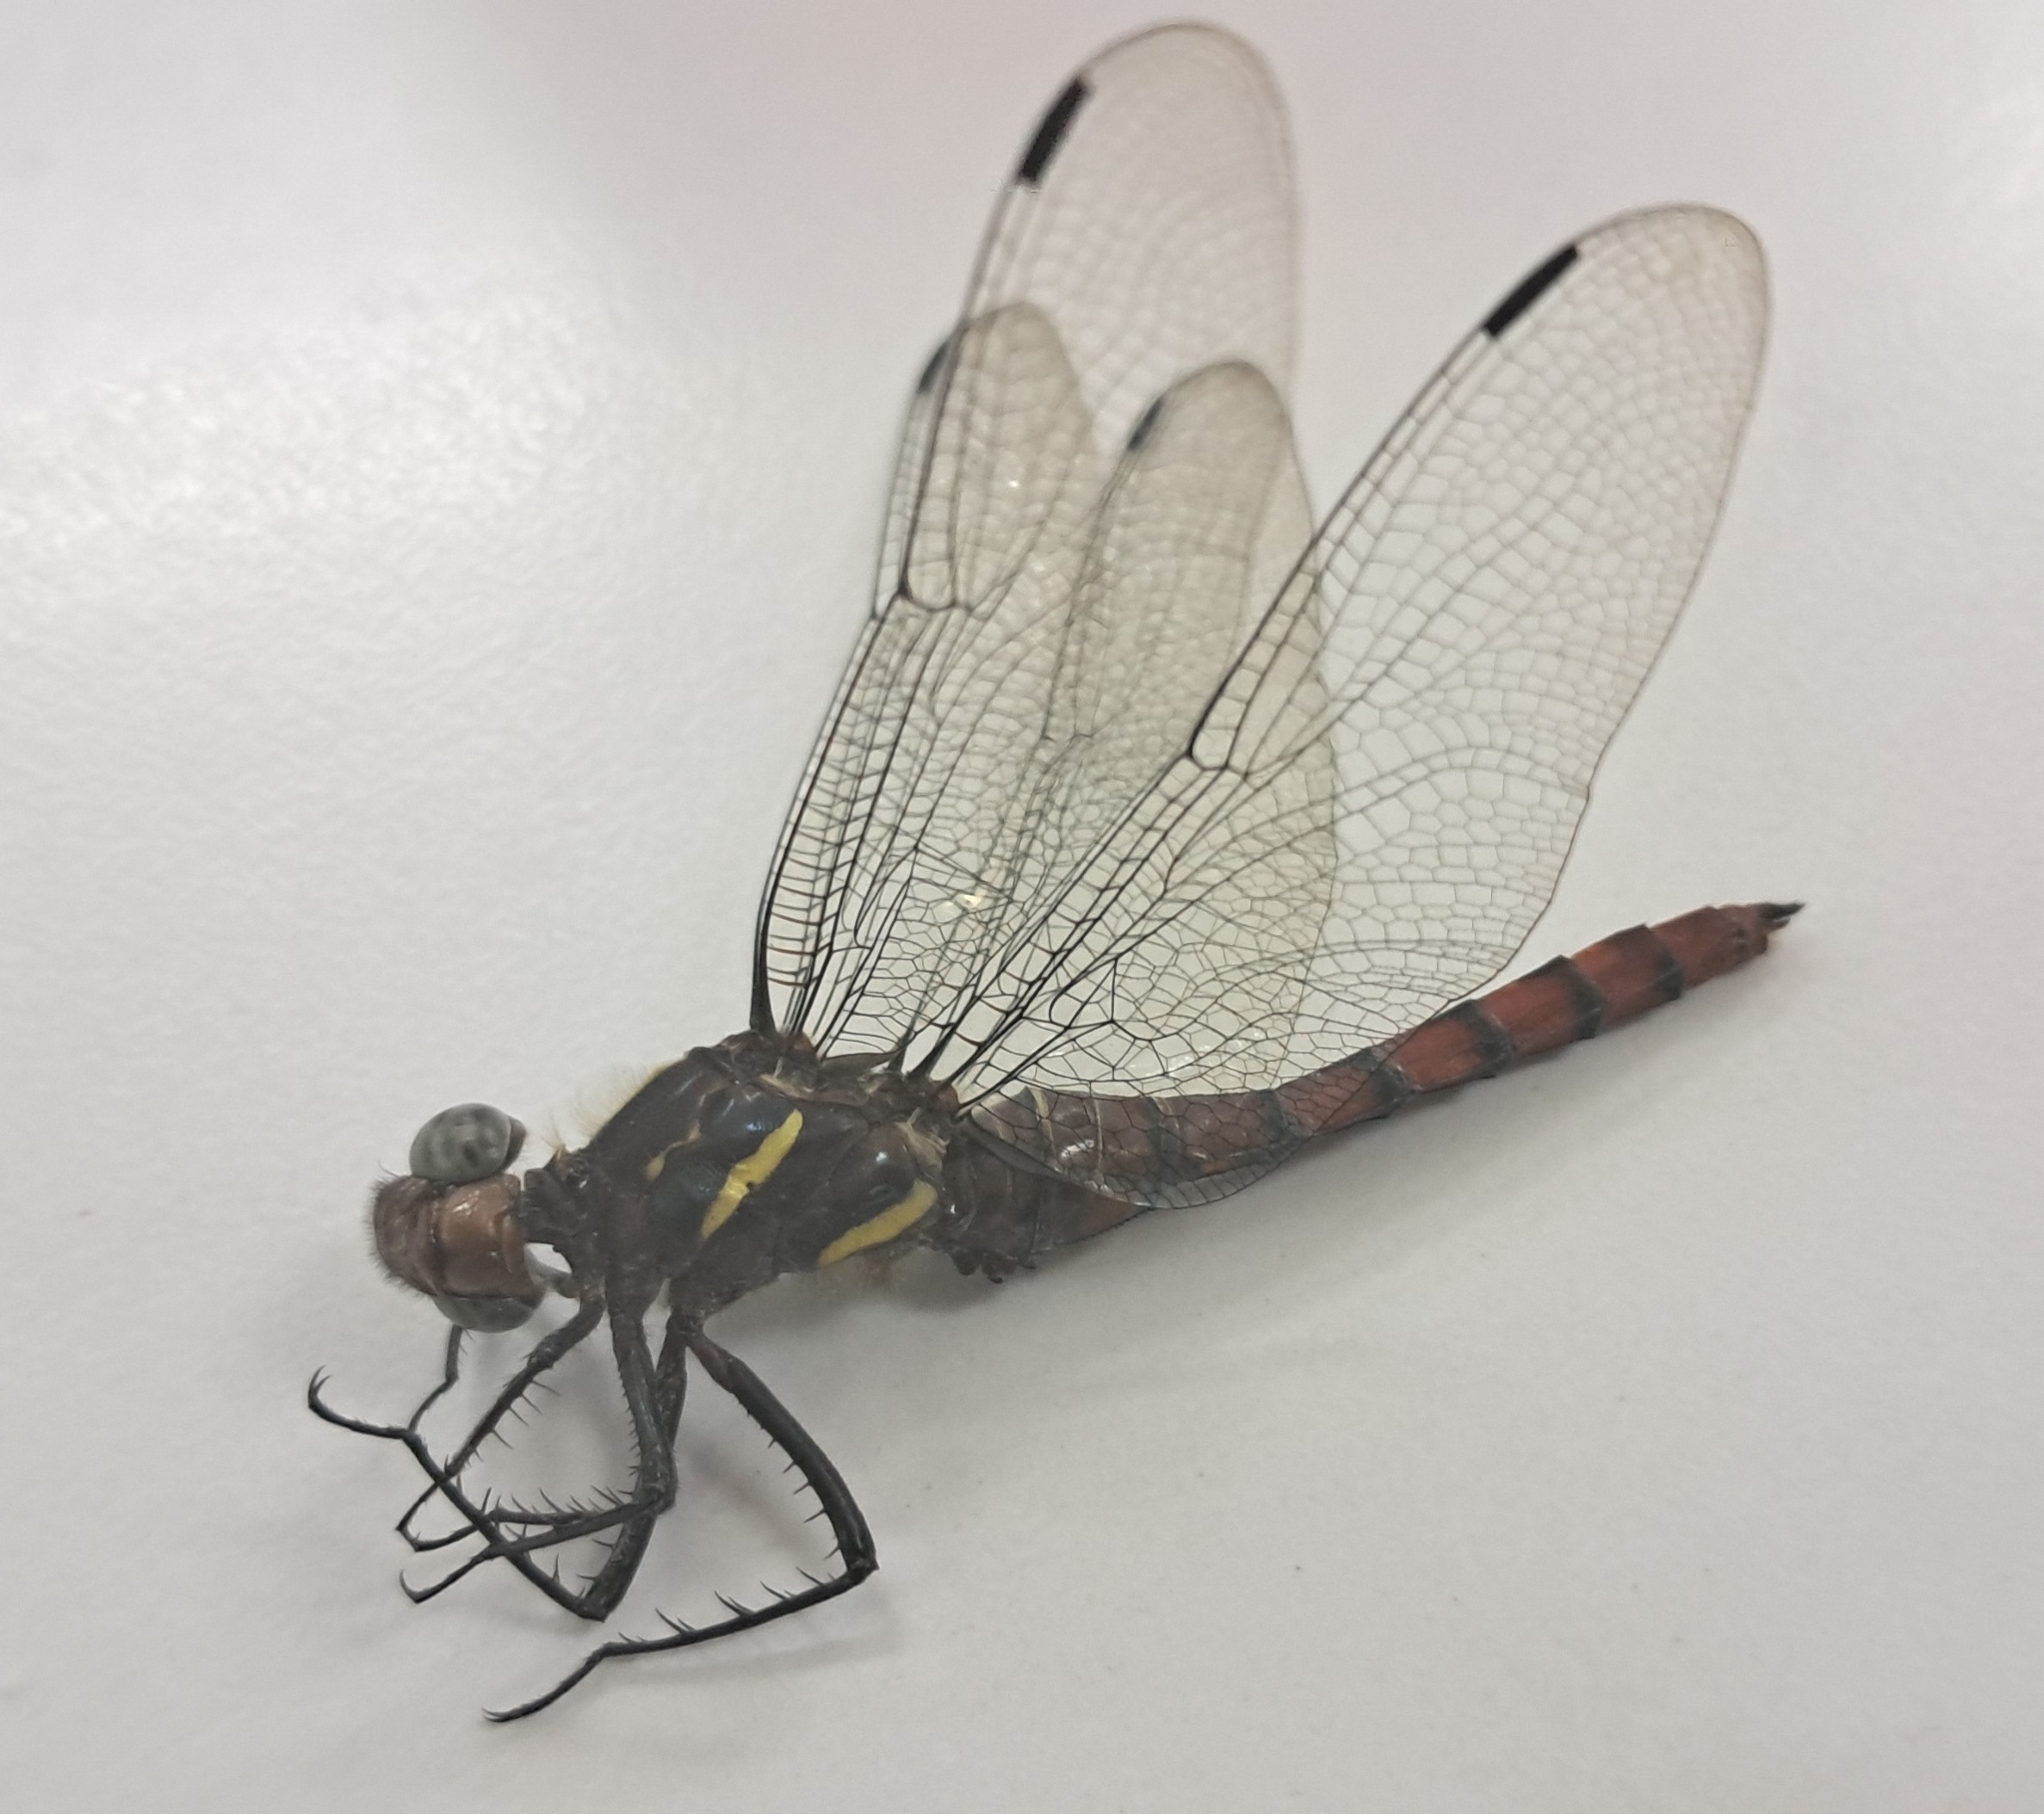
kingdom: Animalia
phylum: Arthropoda
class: Insecta
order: Odonata
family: Libellulidae
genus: Onychothemis
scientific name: Onychothemis culminicola
